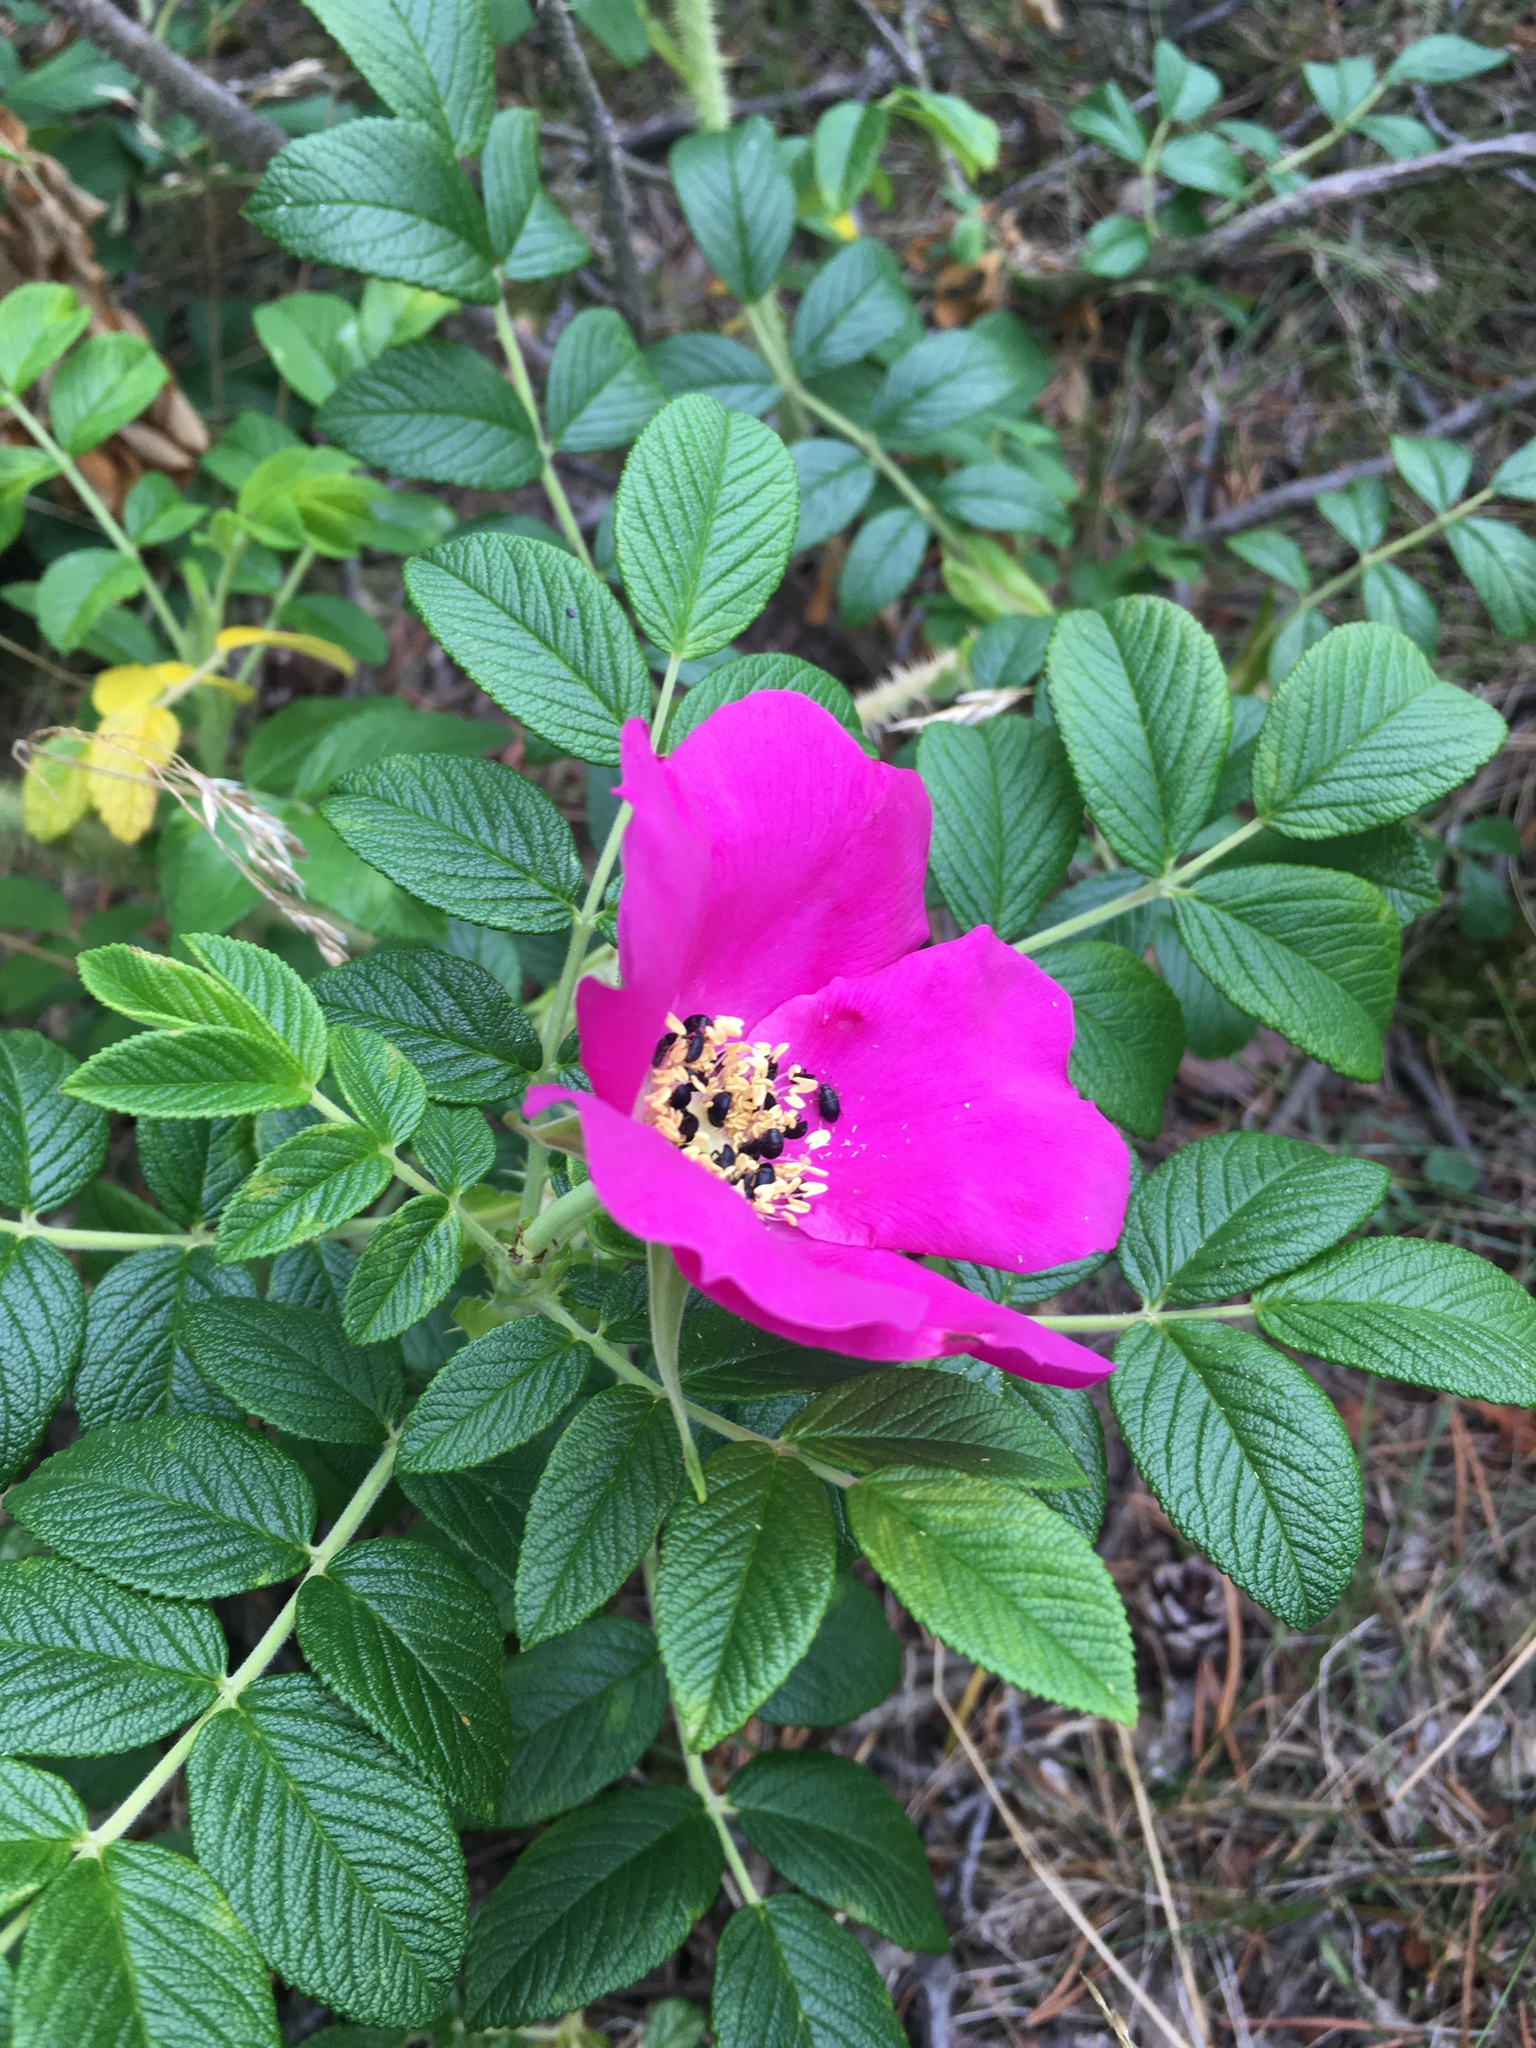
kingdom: Plantae
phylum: Tracheophyta
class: Magnoliopsida
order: Rosales
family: Rosaceae
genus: Rosa
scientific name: Rosa rugosa
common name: Japanese rose
